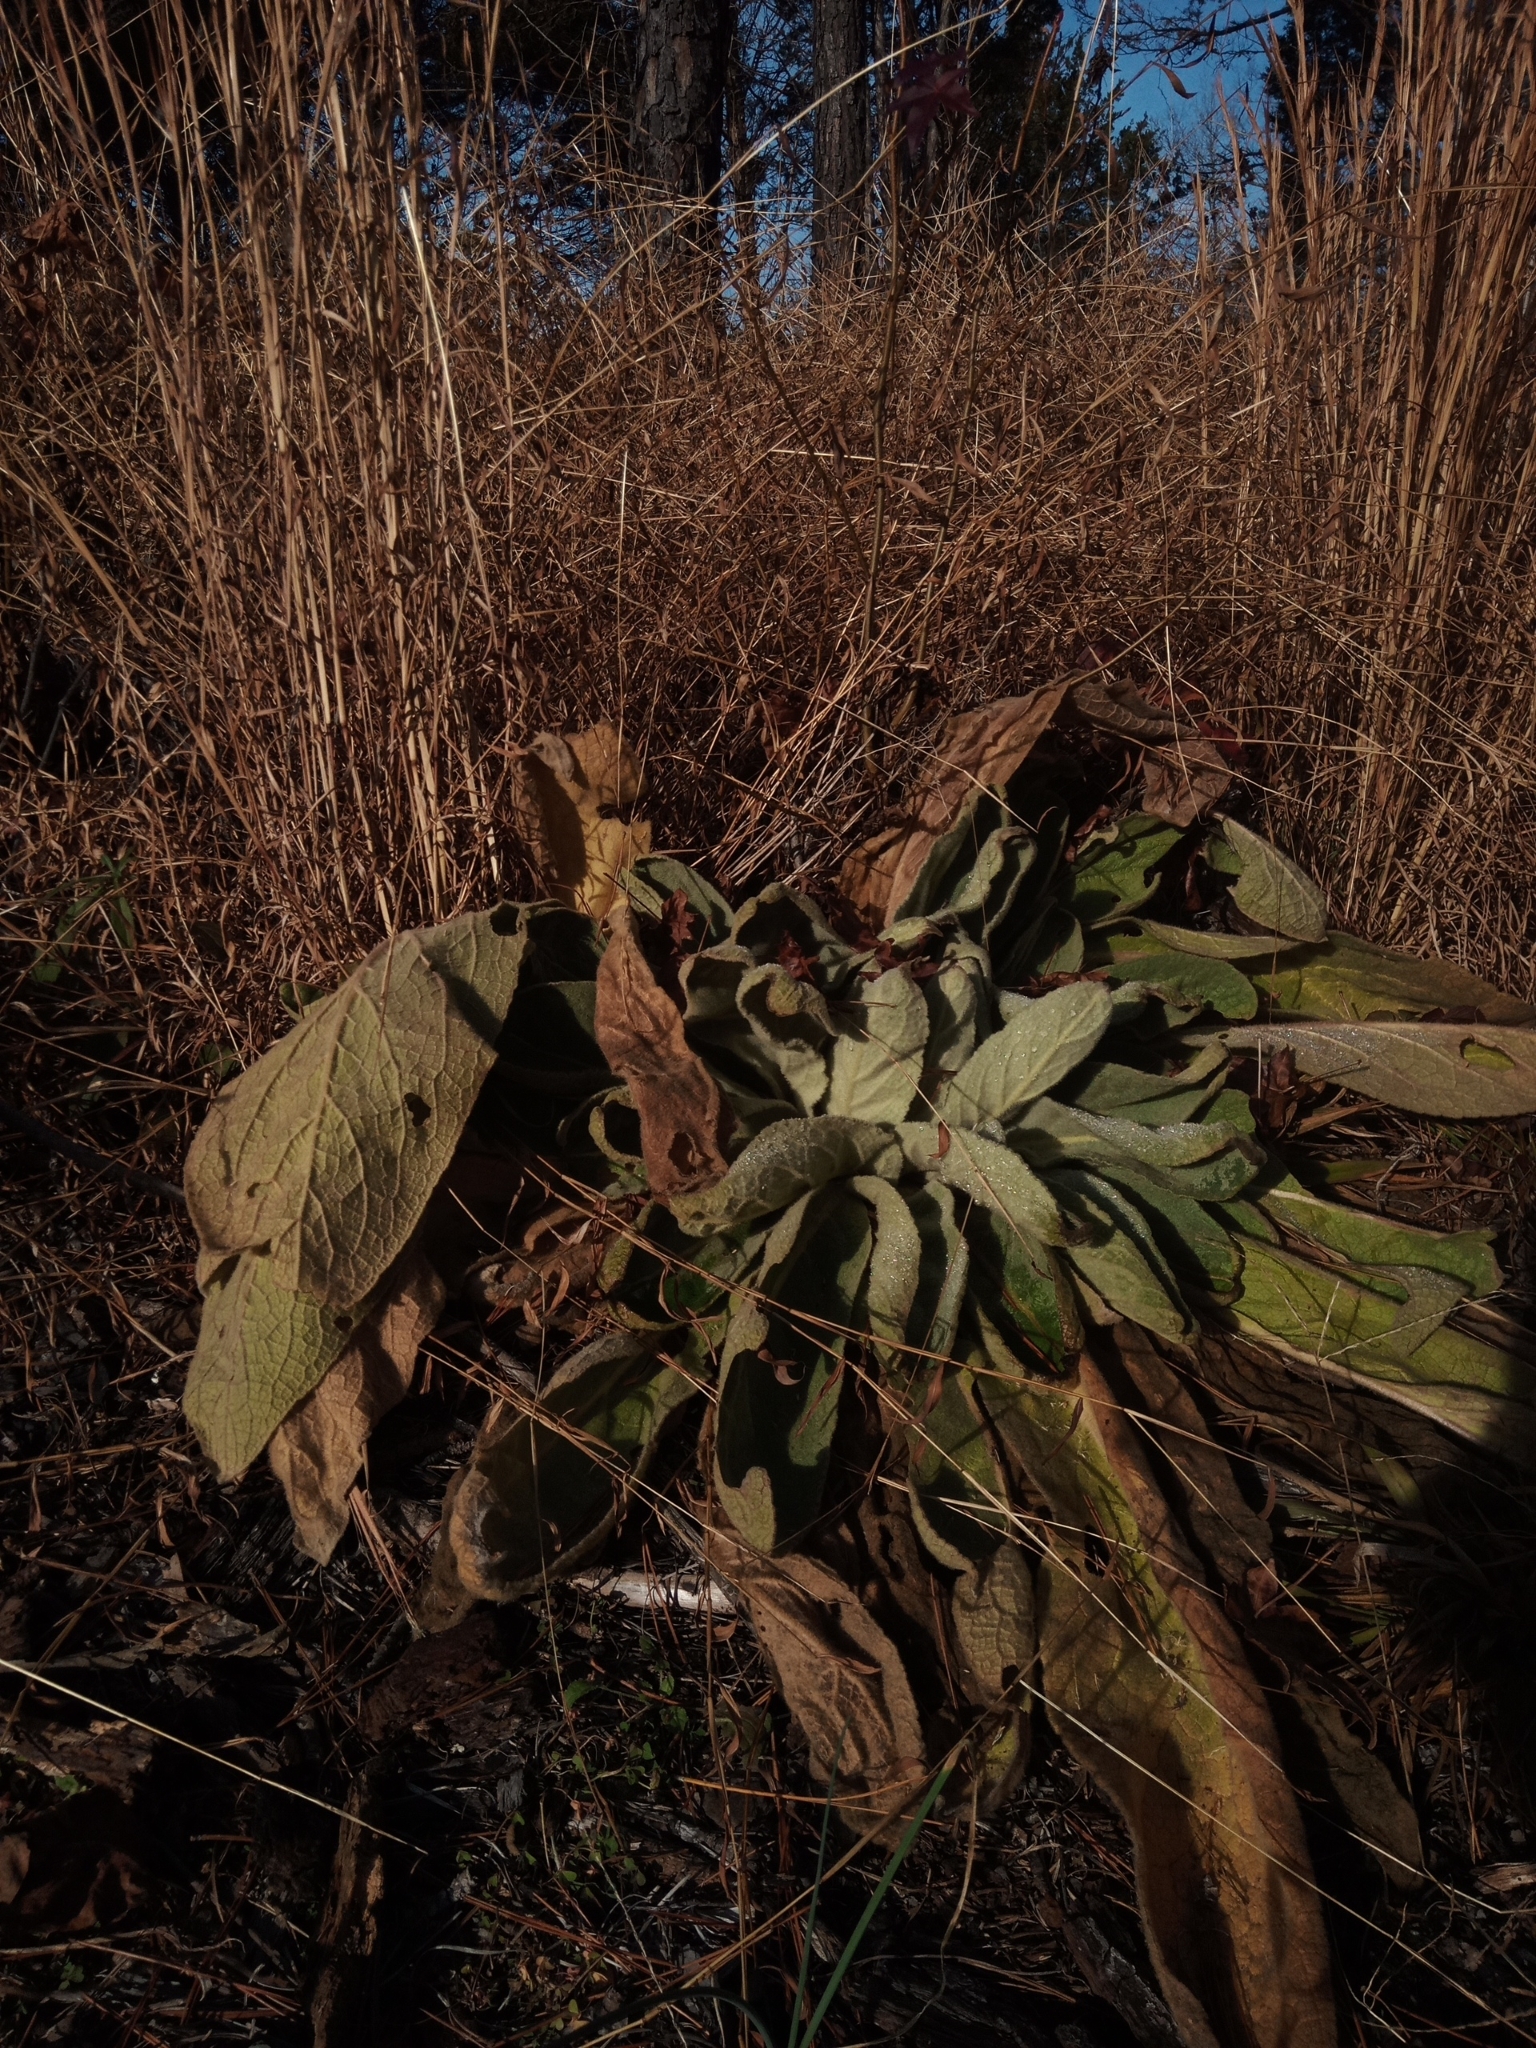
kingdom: Plantae
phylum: Tracheophyta
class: Magnoliopsida
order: Lamiales
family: Scrophulariaceae
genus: Verbascum
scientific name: Verbascum thapsus
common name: Common mullein
